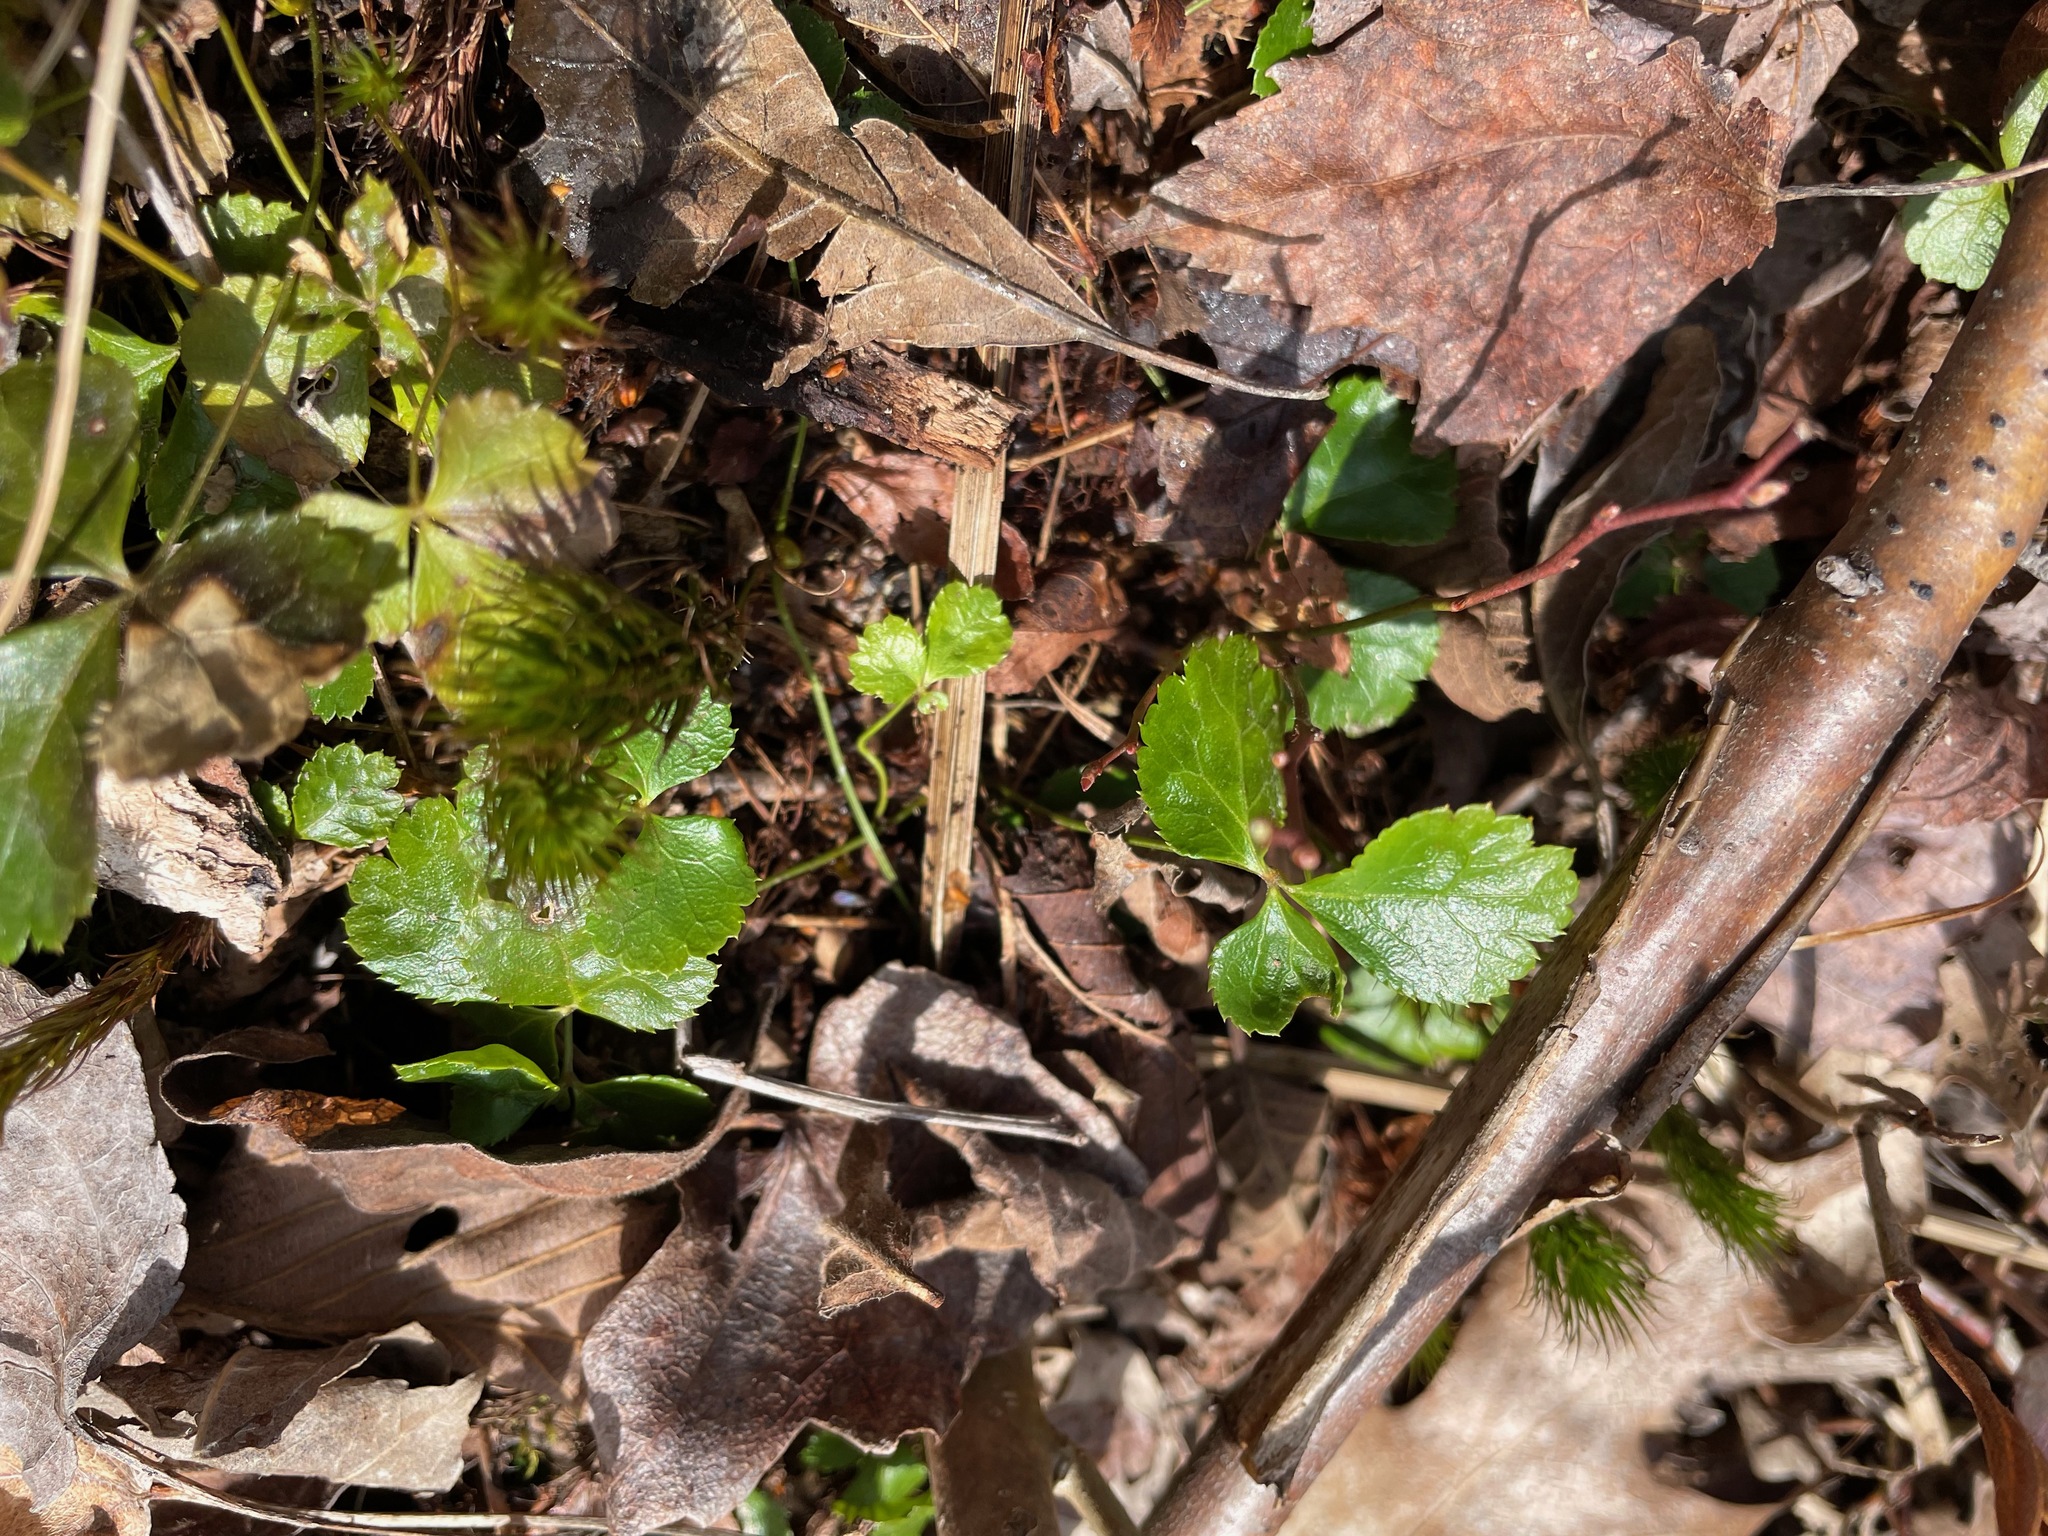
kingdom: Plantae
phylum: Tracheophyta
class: Magnoliopsida
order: Ranunculales
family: Ranunculaceae
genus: Coptis
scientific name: Coptis trifolia
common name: Canker-root
